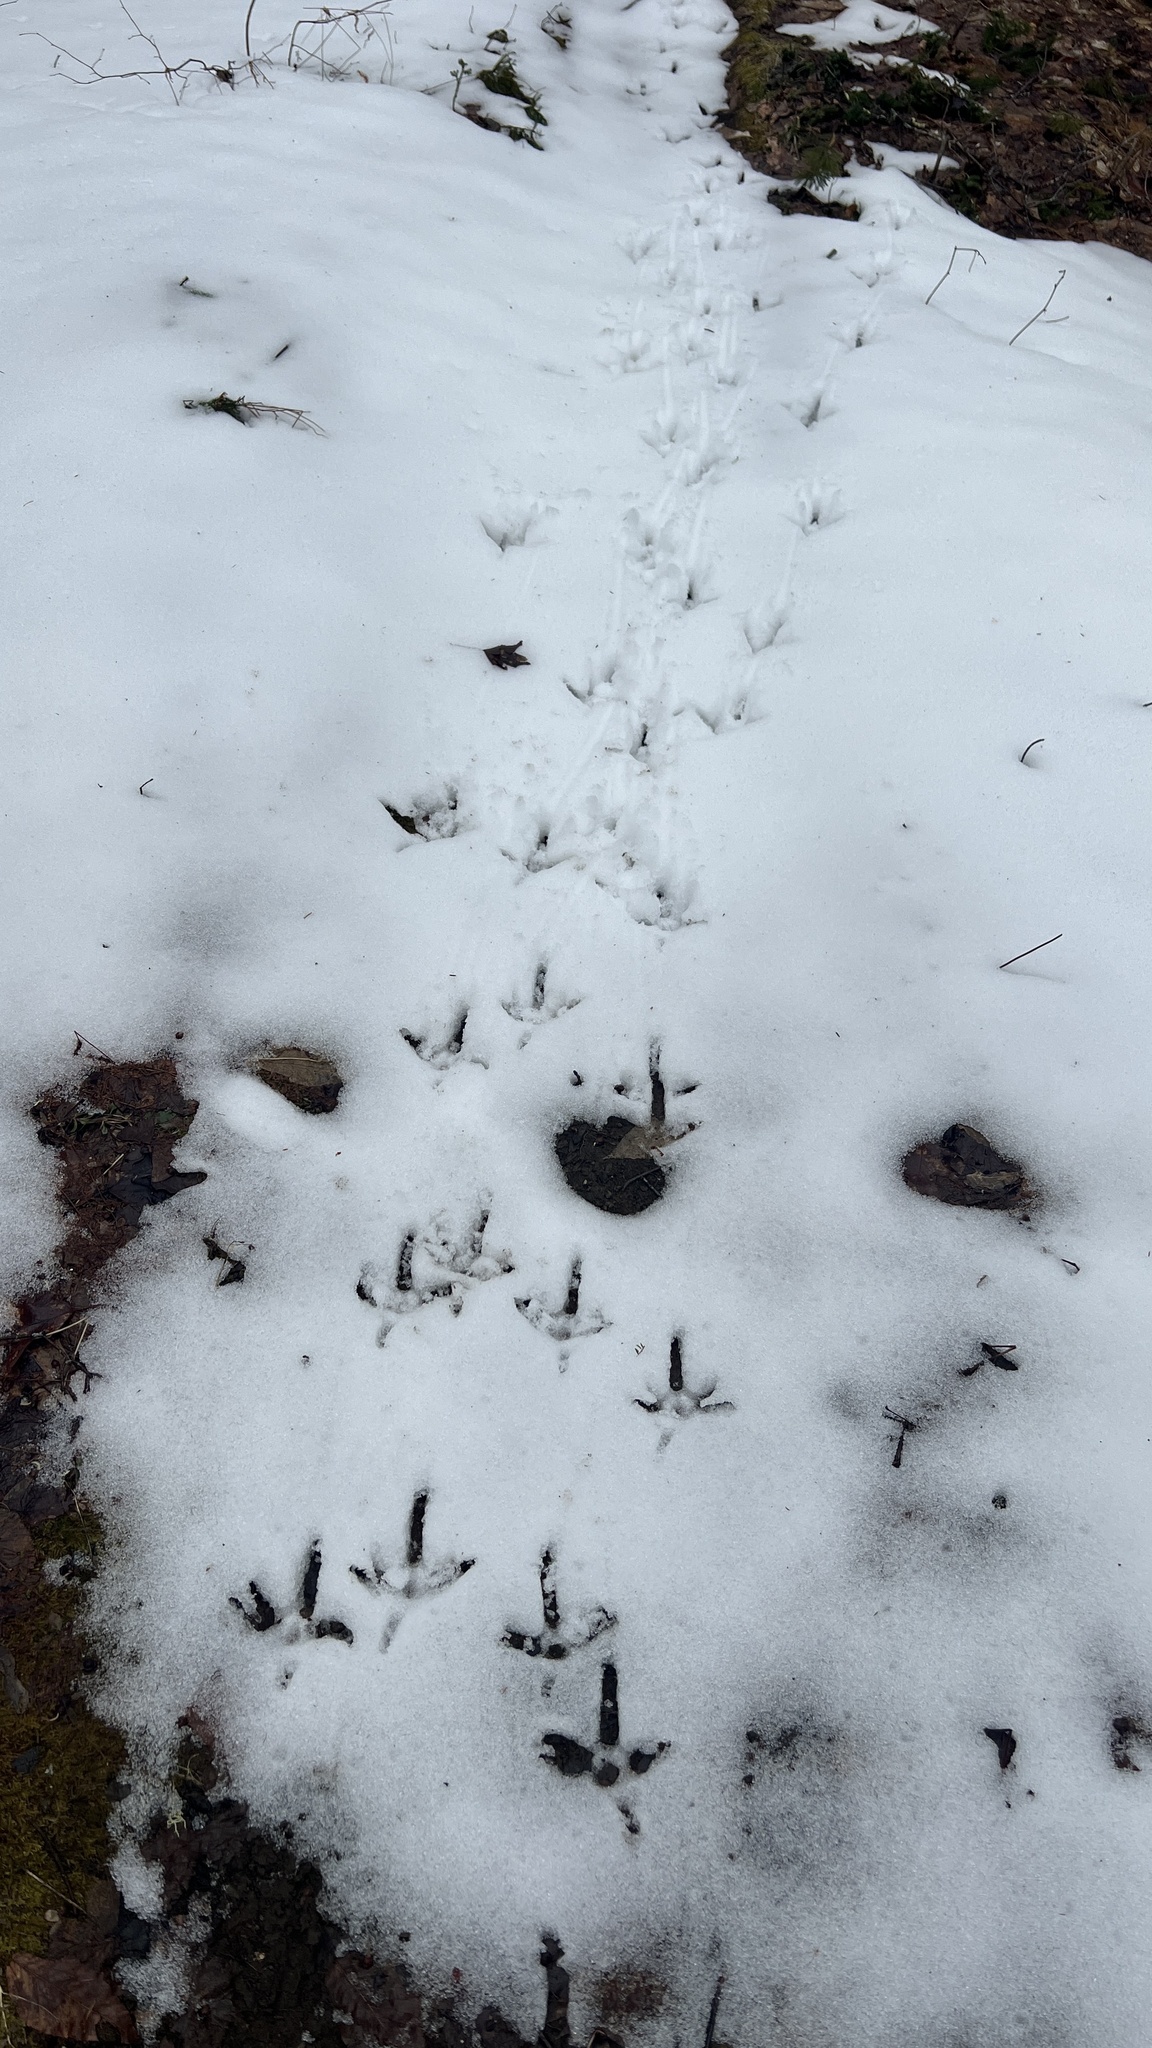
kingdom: Animalia
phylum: Chordata
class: Aves
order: Galliformes
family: Phasianidae
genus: Meleagris
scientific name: Meleagris gallopavo
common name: Wild turkey
